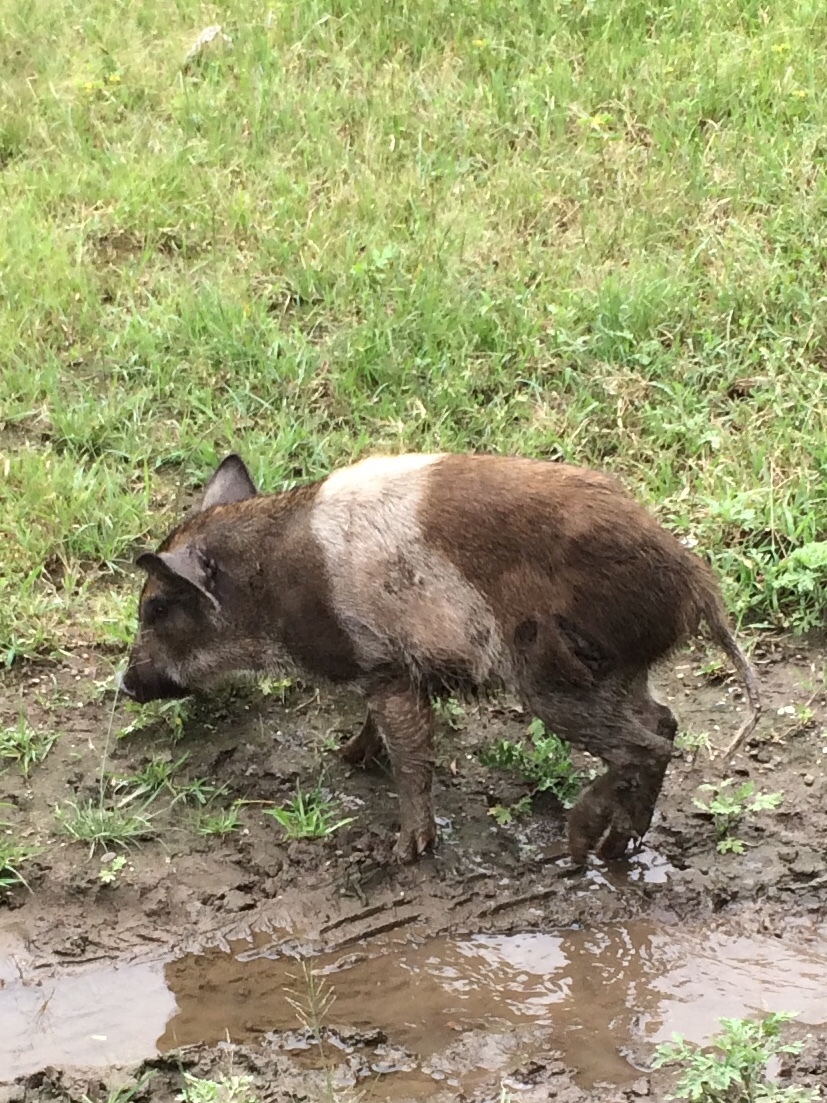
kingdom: Animalia
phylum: Chordata
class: Mammalia
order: Artiodactyla
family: Suidae
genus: Sus
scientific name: Sus scrofa
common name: Wild boar
